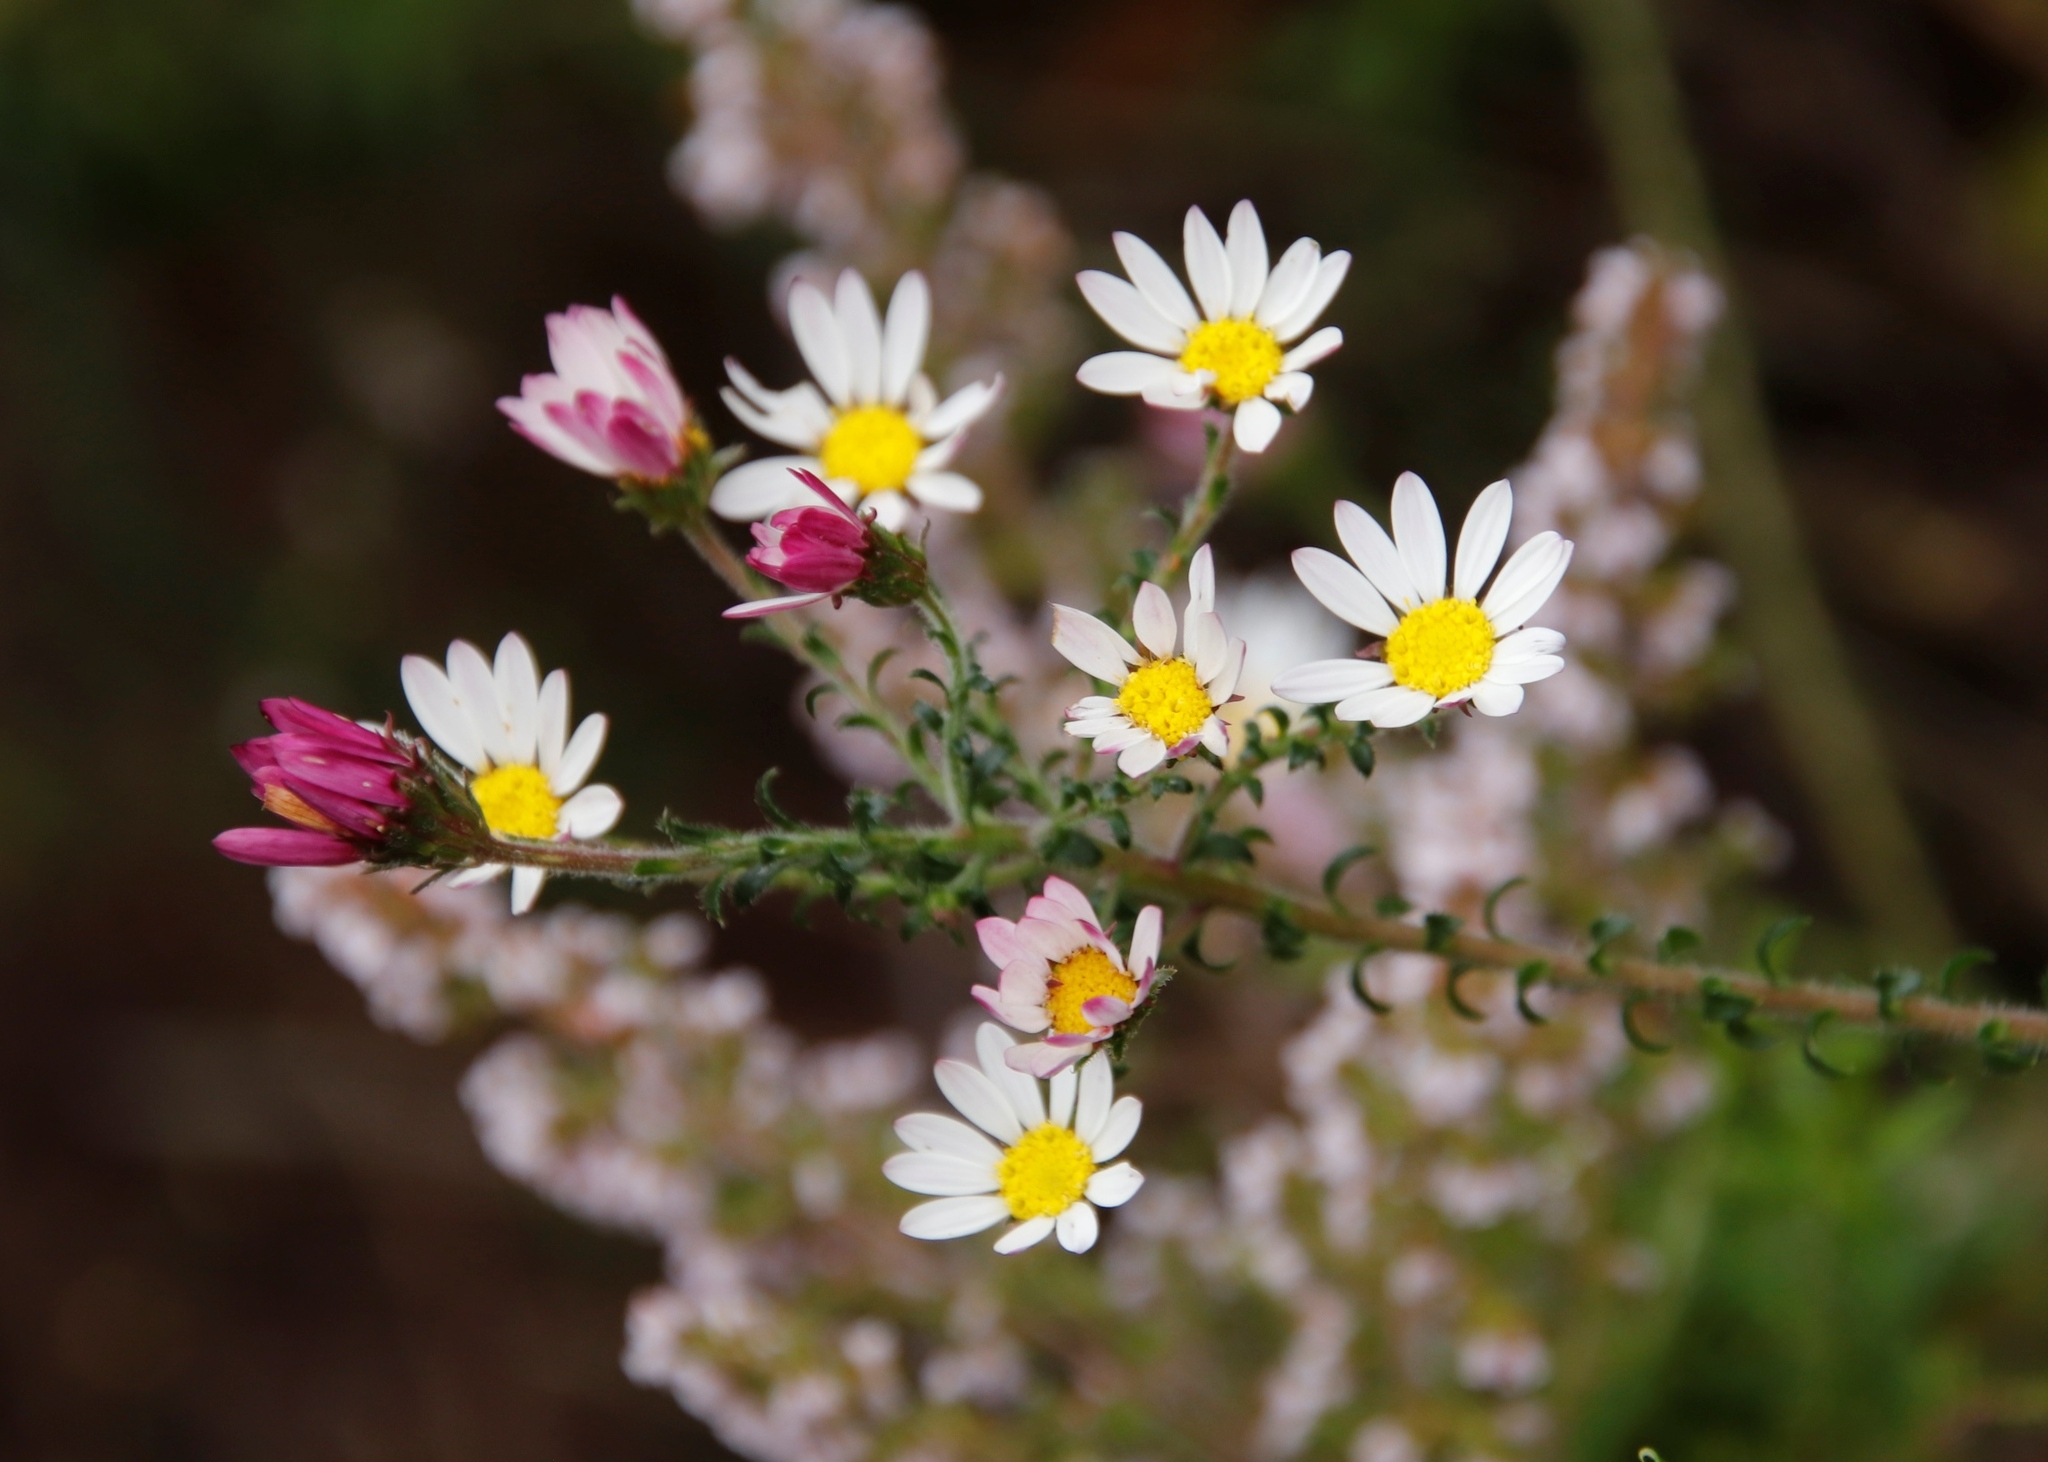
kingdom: Plantae
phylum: Tracheophyta
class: Magnoliopsida
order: Asterales
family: Asteraceae
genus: Polyarrhena
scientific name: Polyarrhena reflexa
